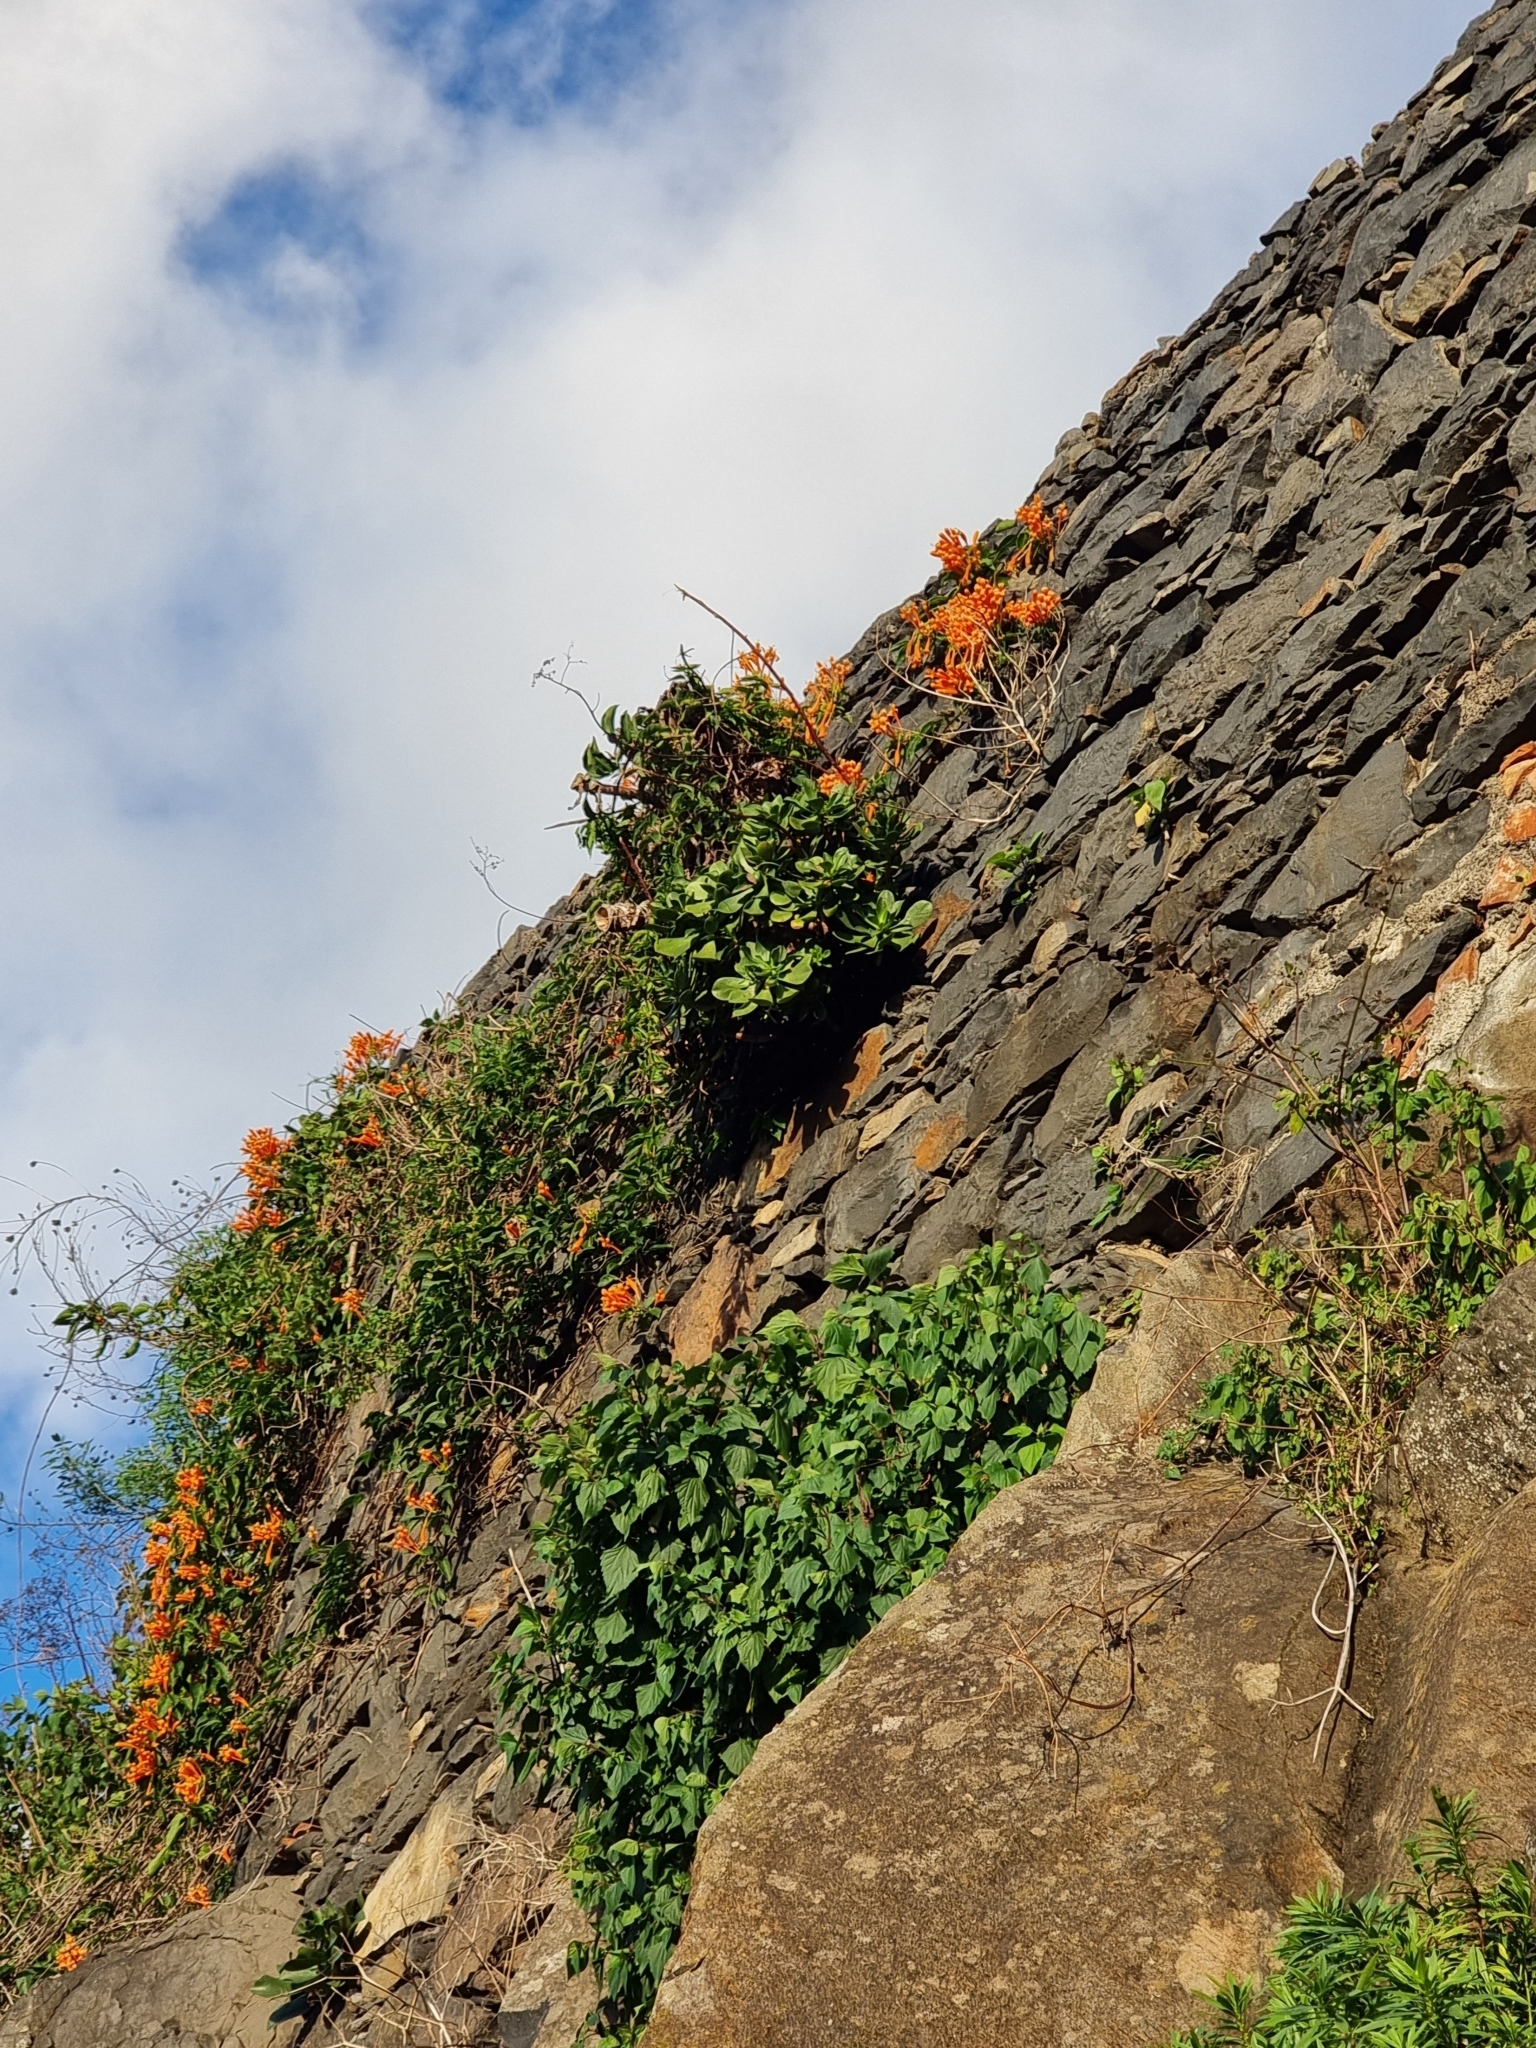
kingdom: Plantae
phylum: Tracheophyta
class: Magnoliopsida
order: Saxifragales
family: Crassulaceae
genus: Aeonium
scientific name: Aeonium glutinosum
